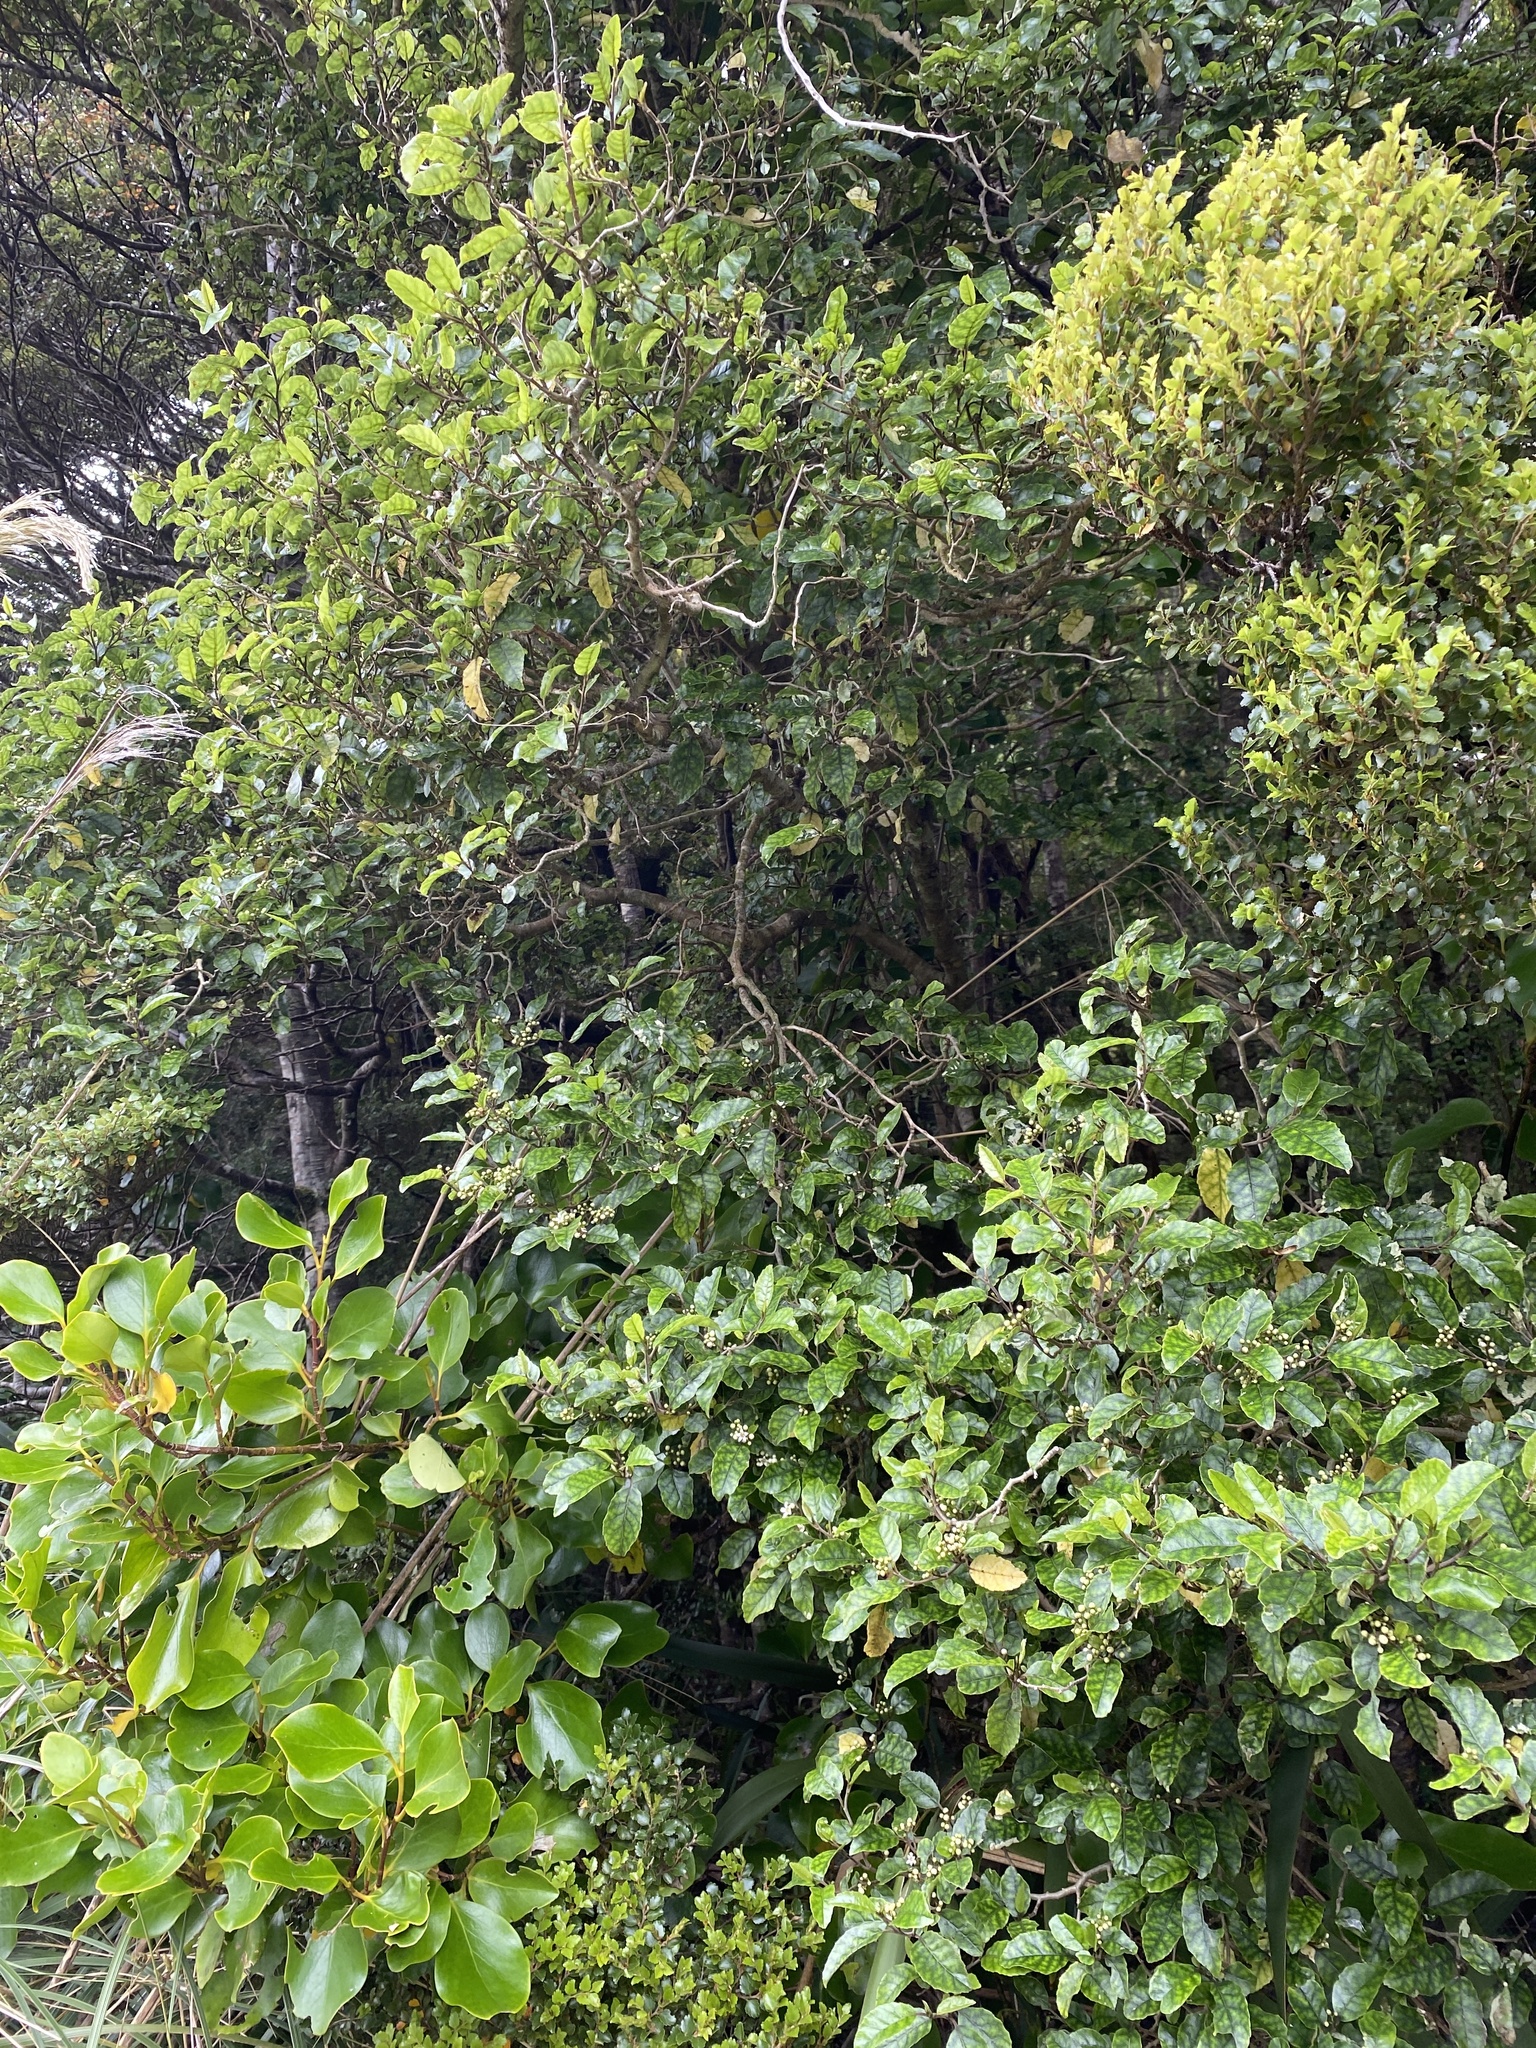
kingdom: Plantae
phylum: Tracheophyta
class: Magnoliopsida
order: Asterales
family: Rousseaceae
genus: Carpodetus
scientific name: Carpodetus serratus
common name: White mapau
